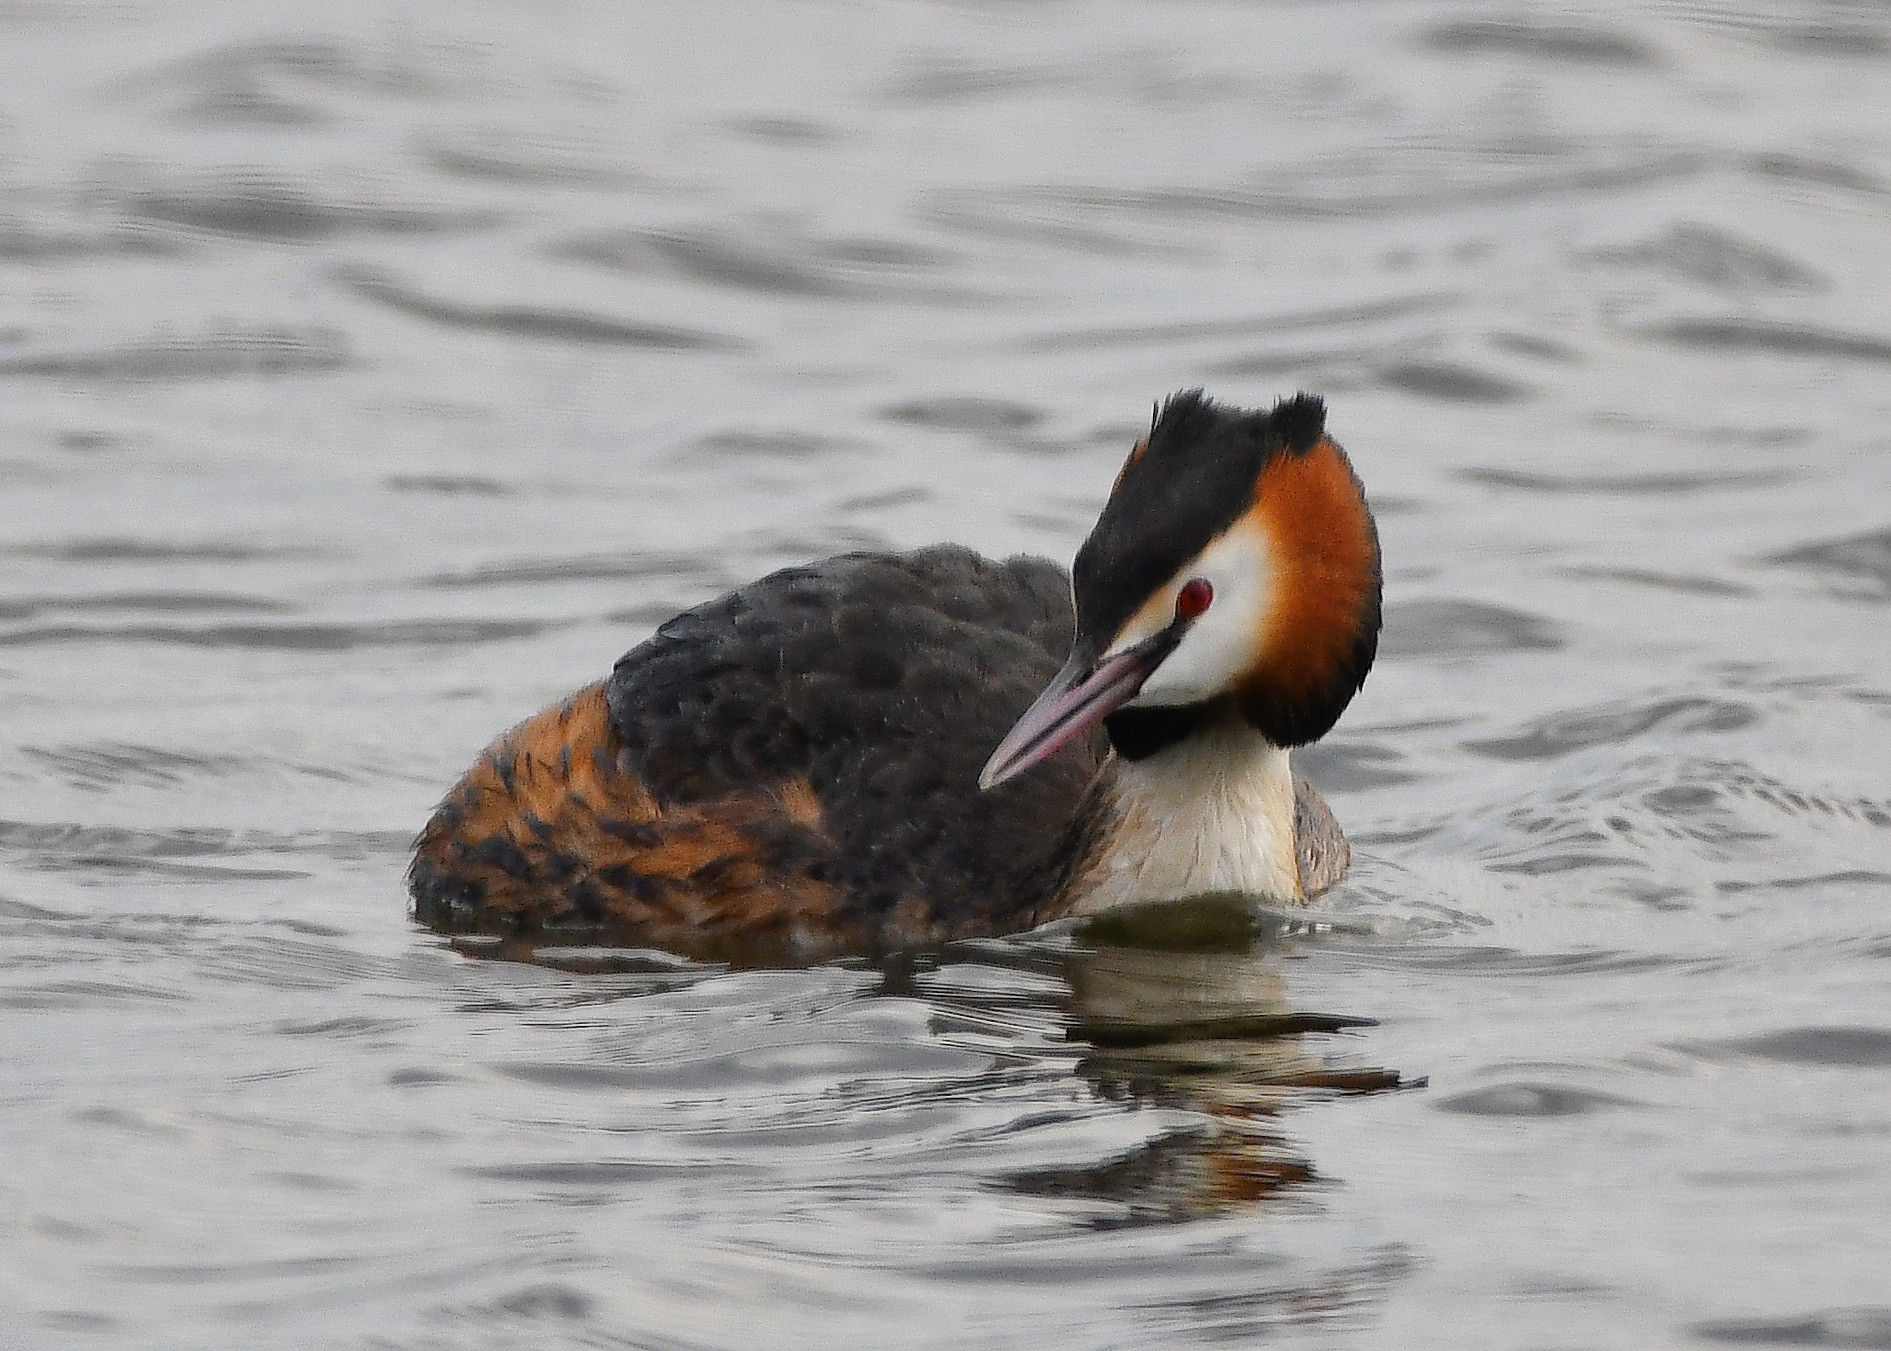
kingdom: Animalia
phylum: Chordata
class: Aves
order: Podicipediformes
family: Podicipedidae
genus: Podiceps
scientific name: Podiceps cristatus
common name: Great crested grebe
